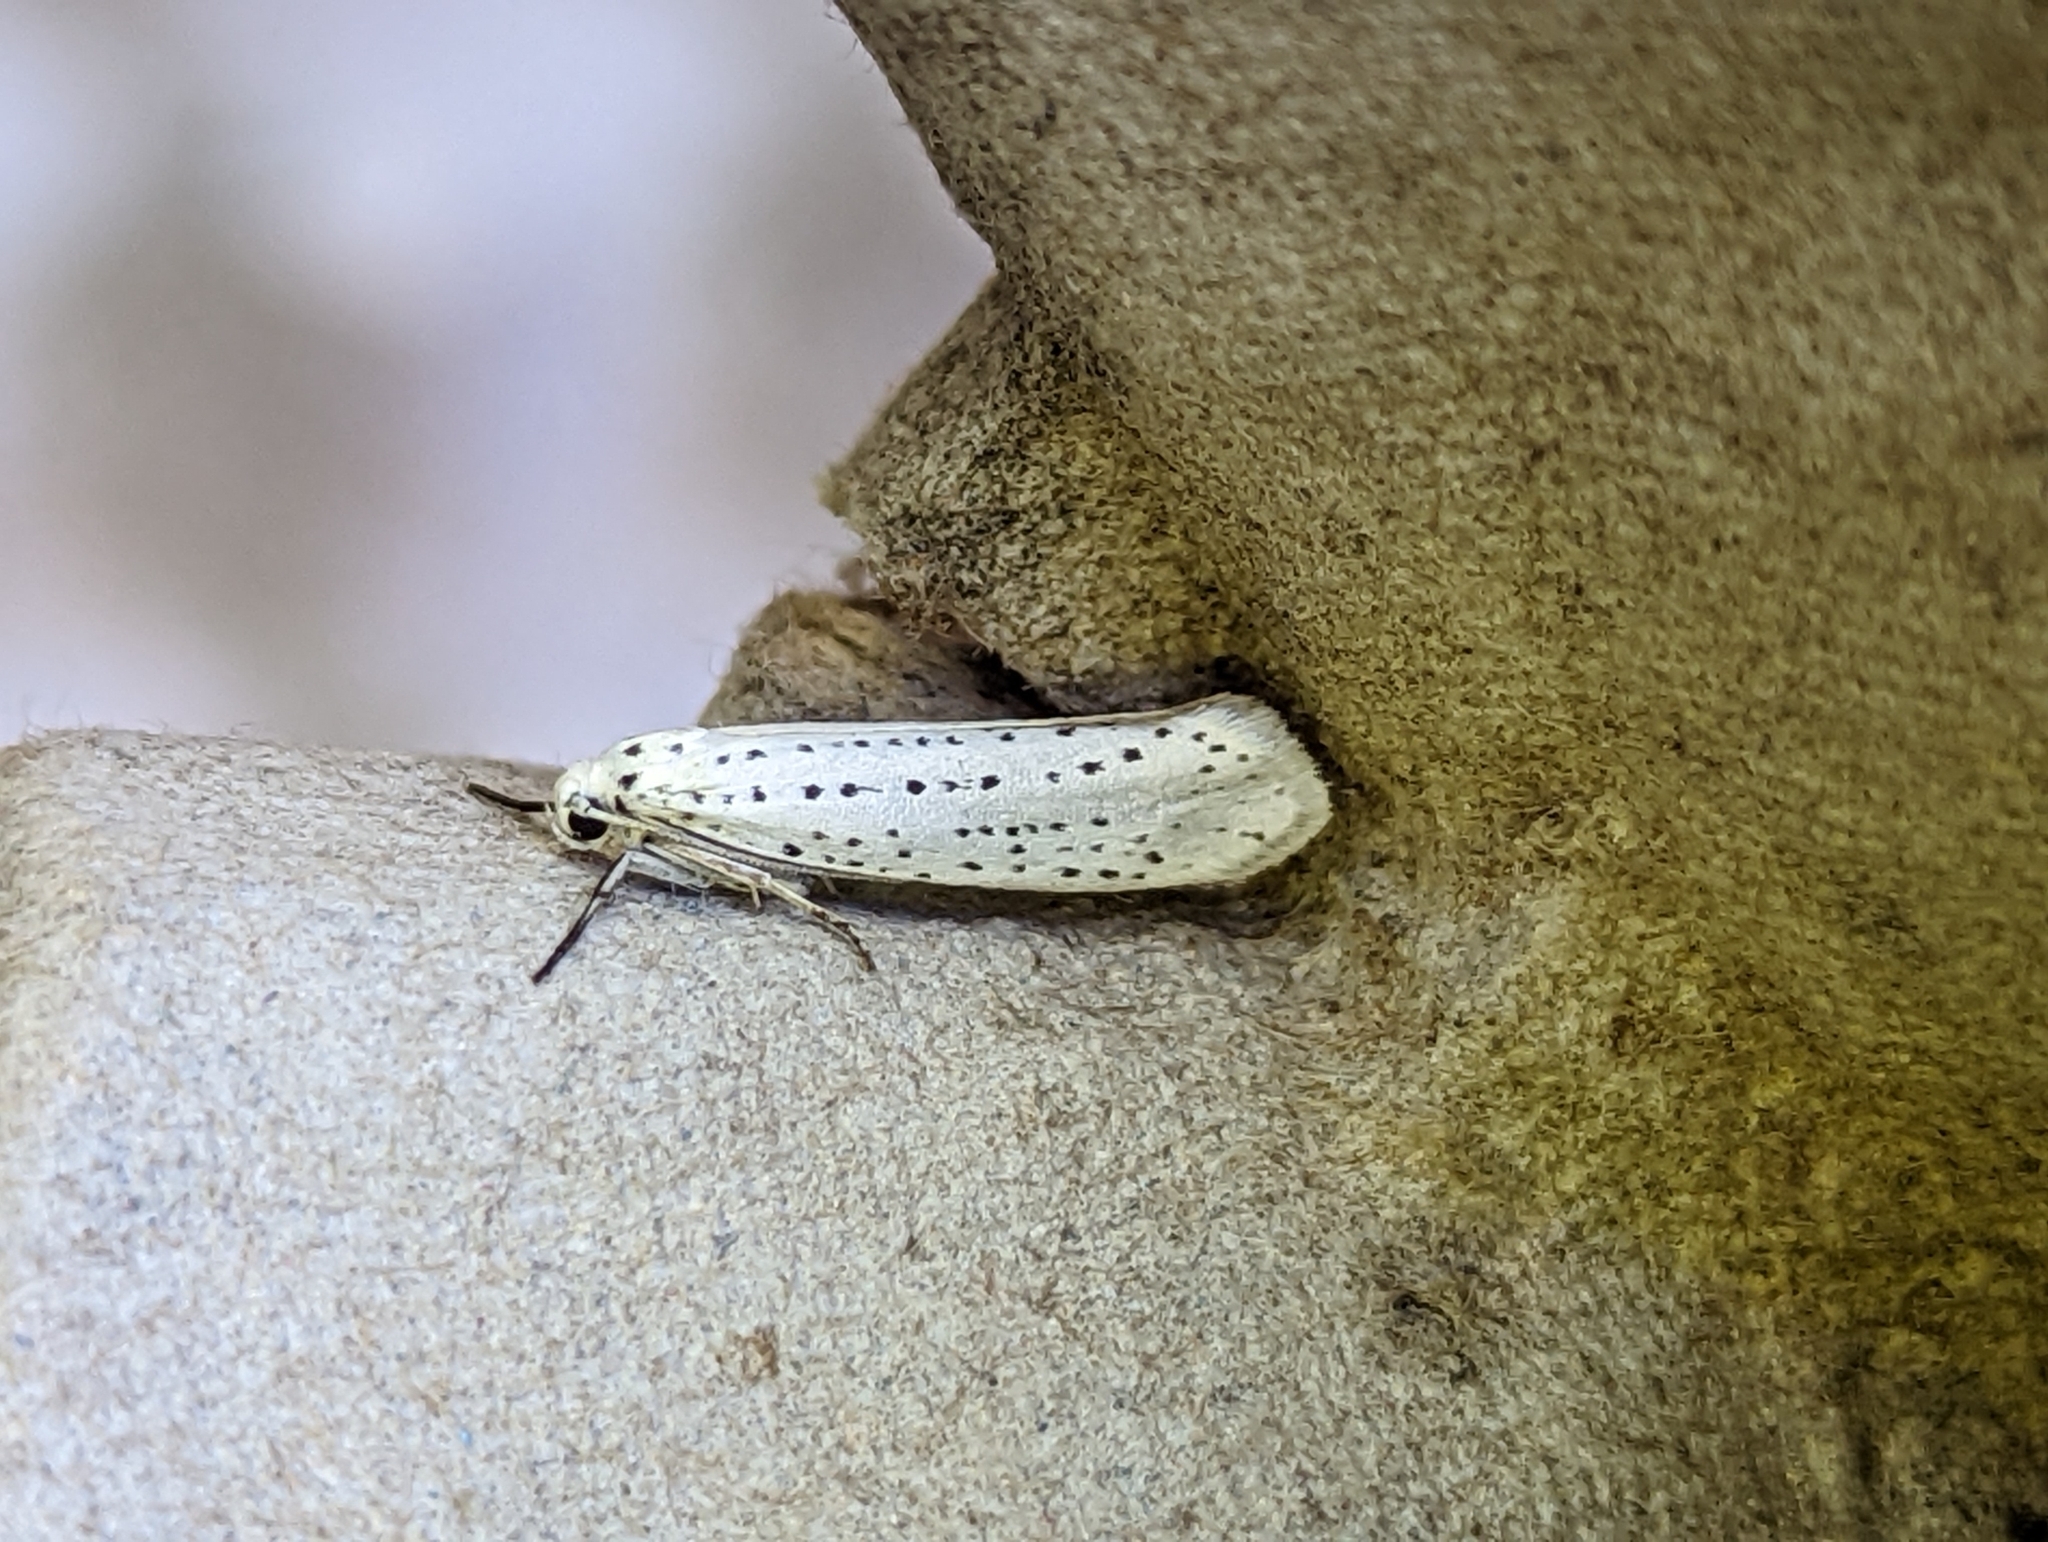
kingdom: Animalia
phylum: Arthropoda
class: Insecta
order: Lepidoptera
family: Yponomeutidae
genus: Yponomeuta
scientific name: Yponomeuta evonymella
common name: Bird-cherry ermine
